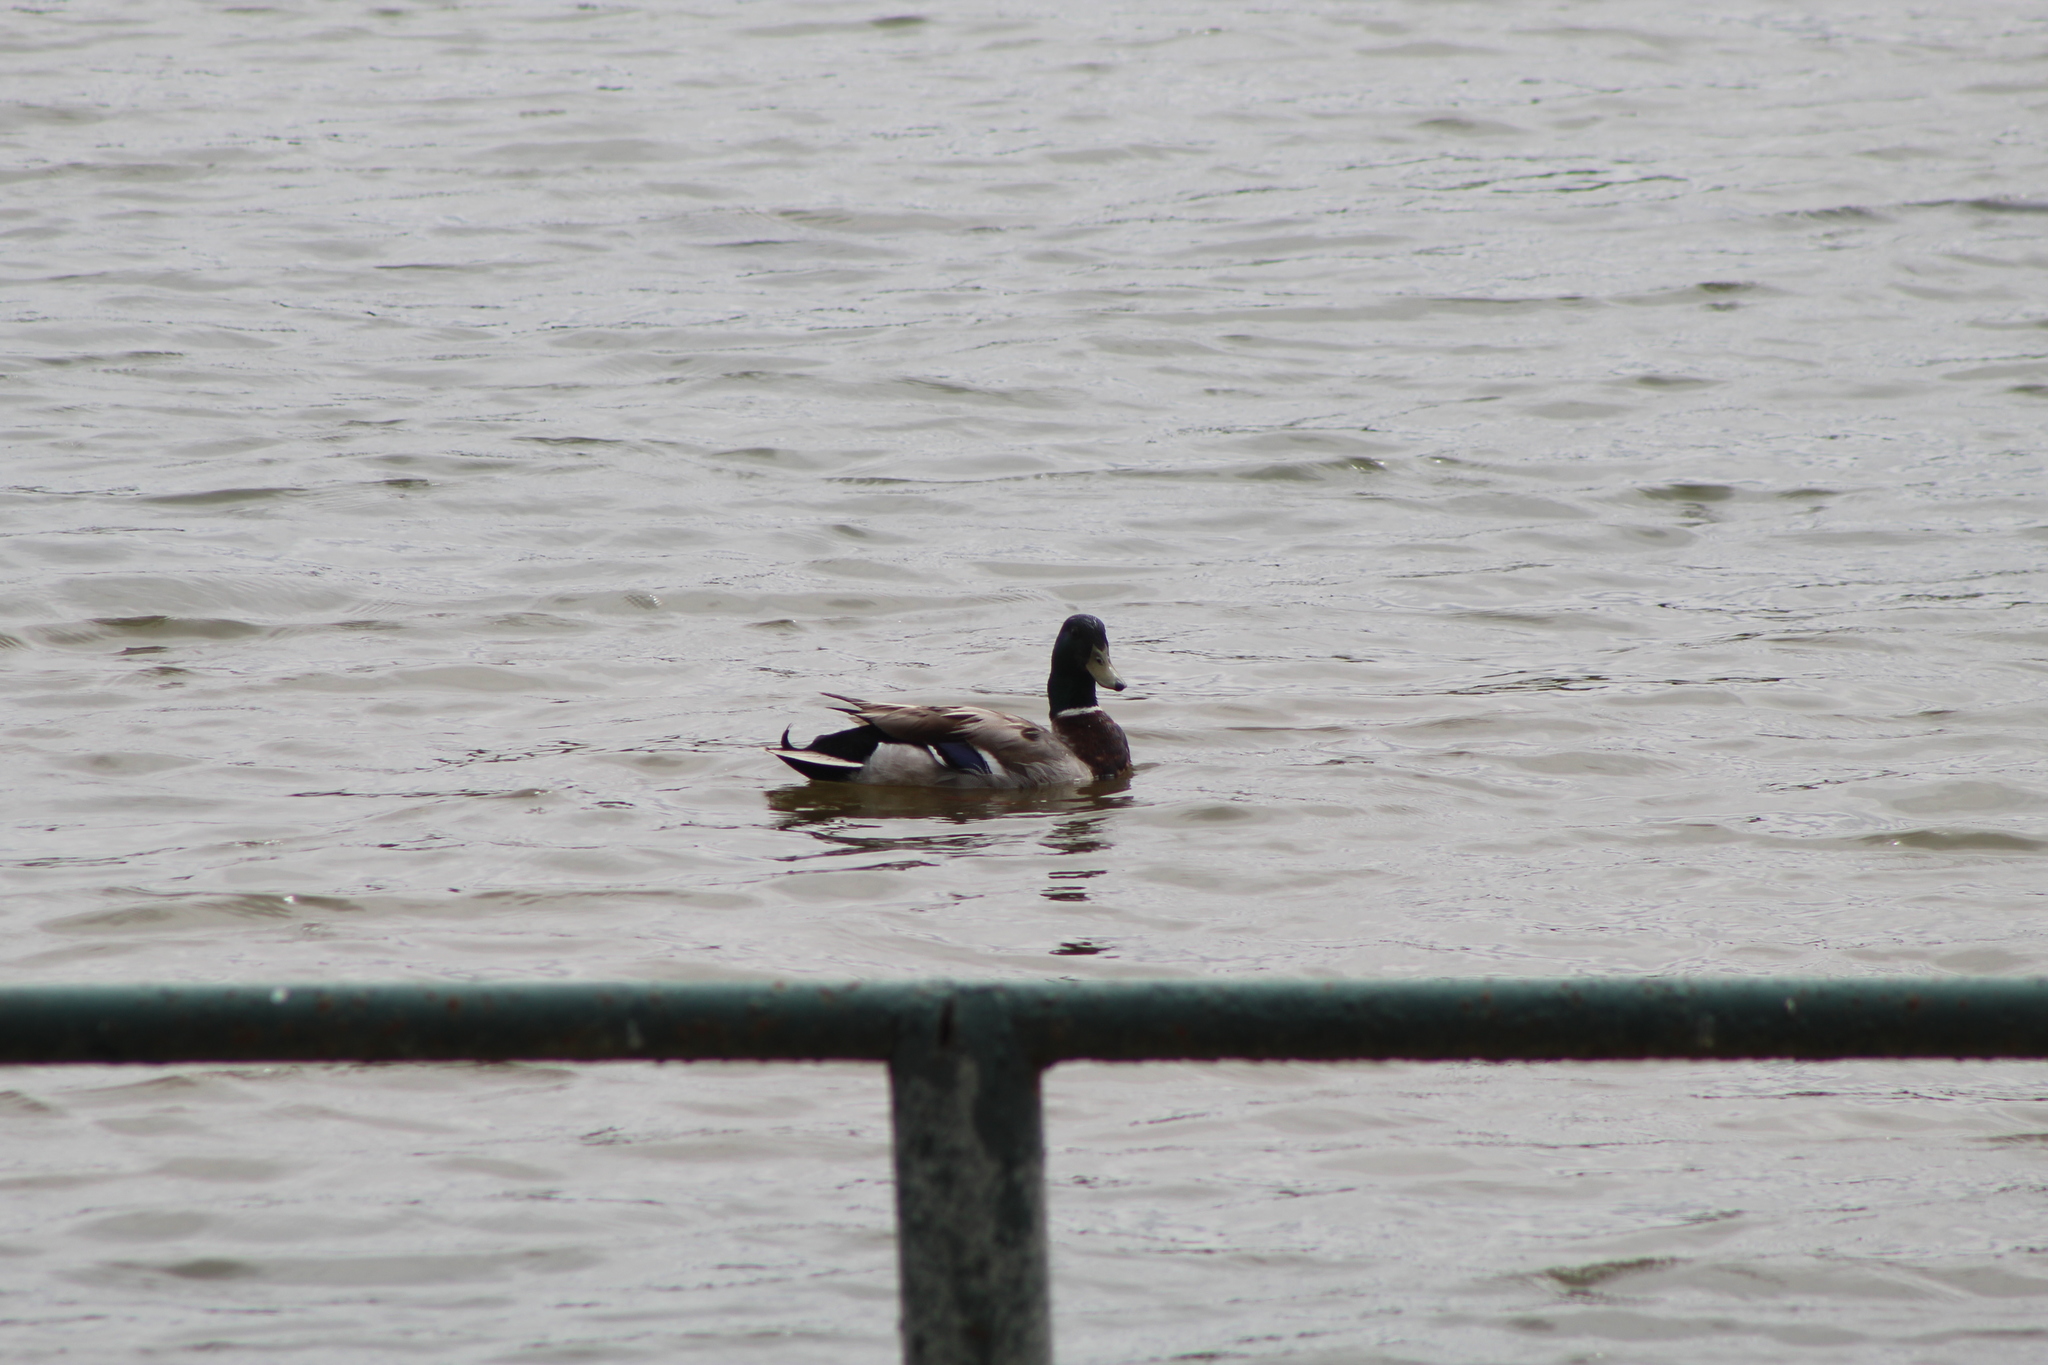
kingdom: Animalia
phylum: Chordata
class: Aves
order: Anseriformes
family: Anatidae
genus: Anas
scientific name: Anas platyrhynchos
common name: Mallard
